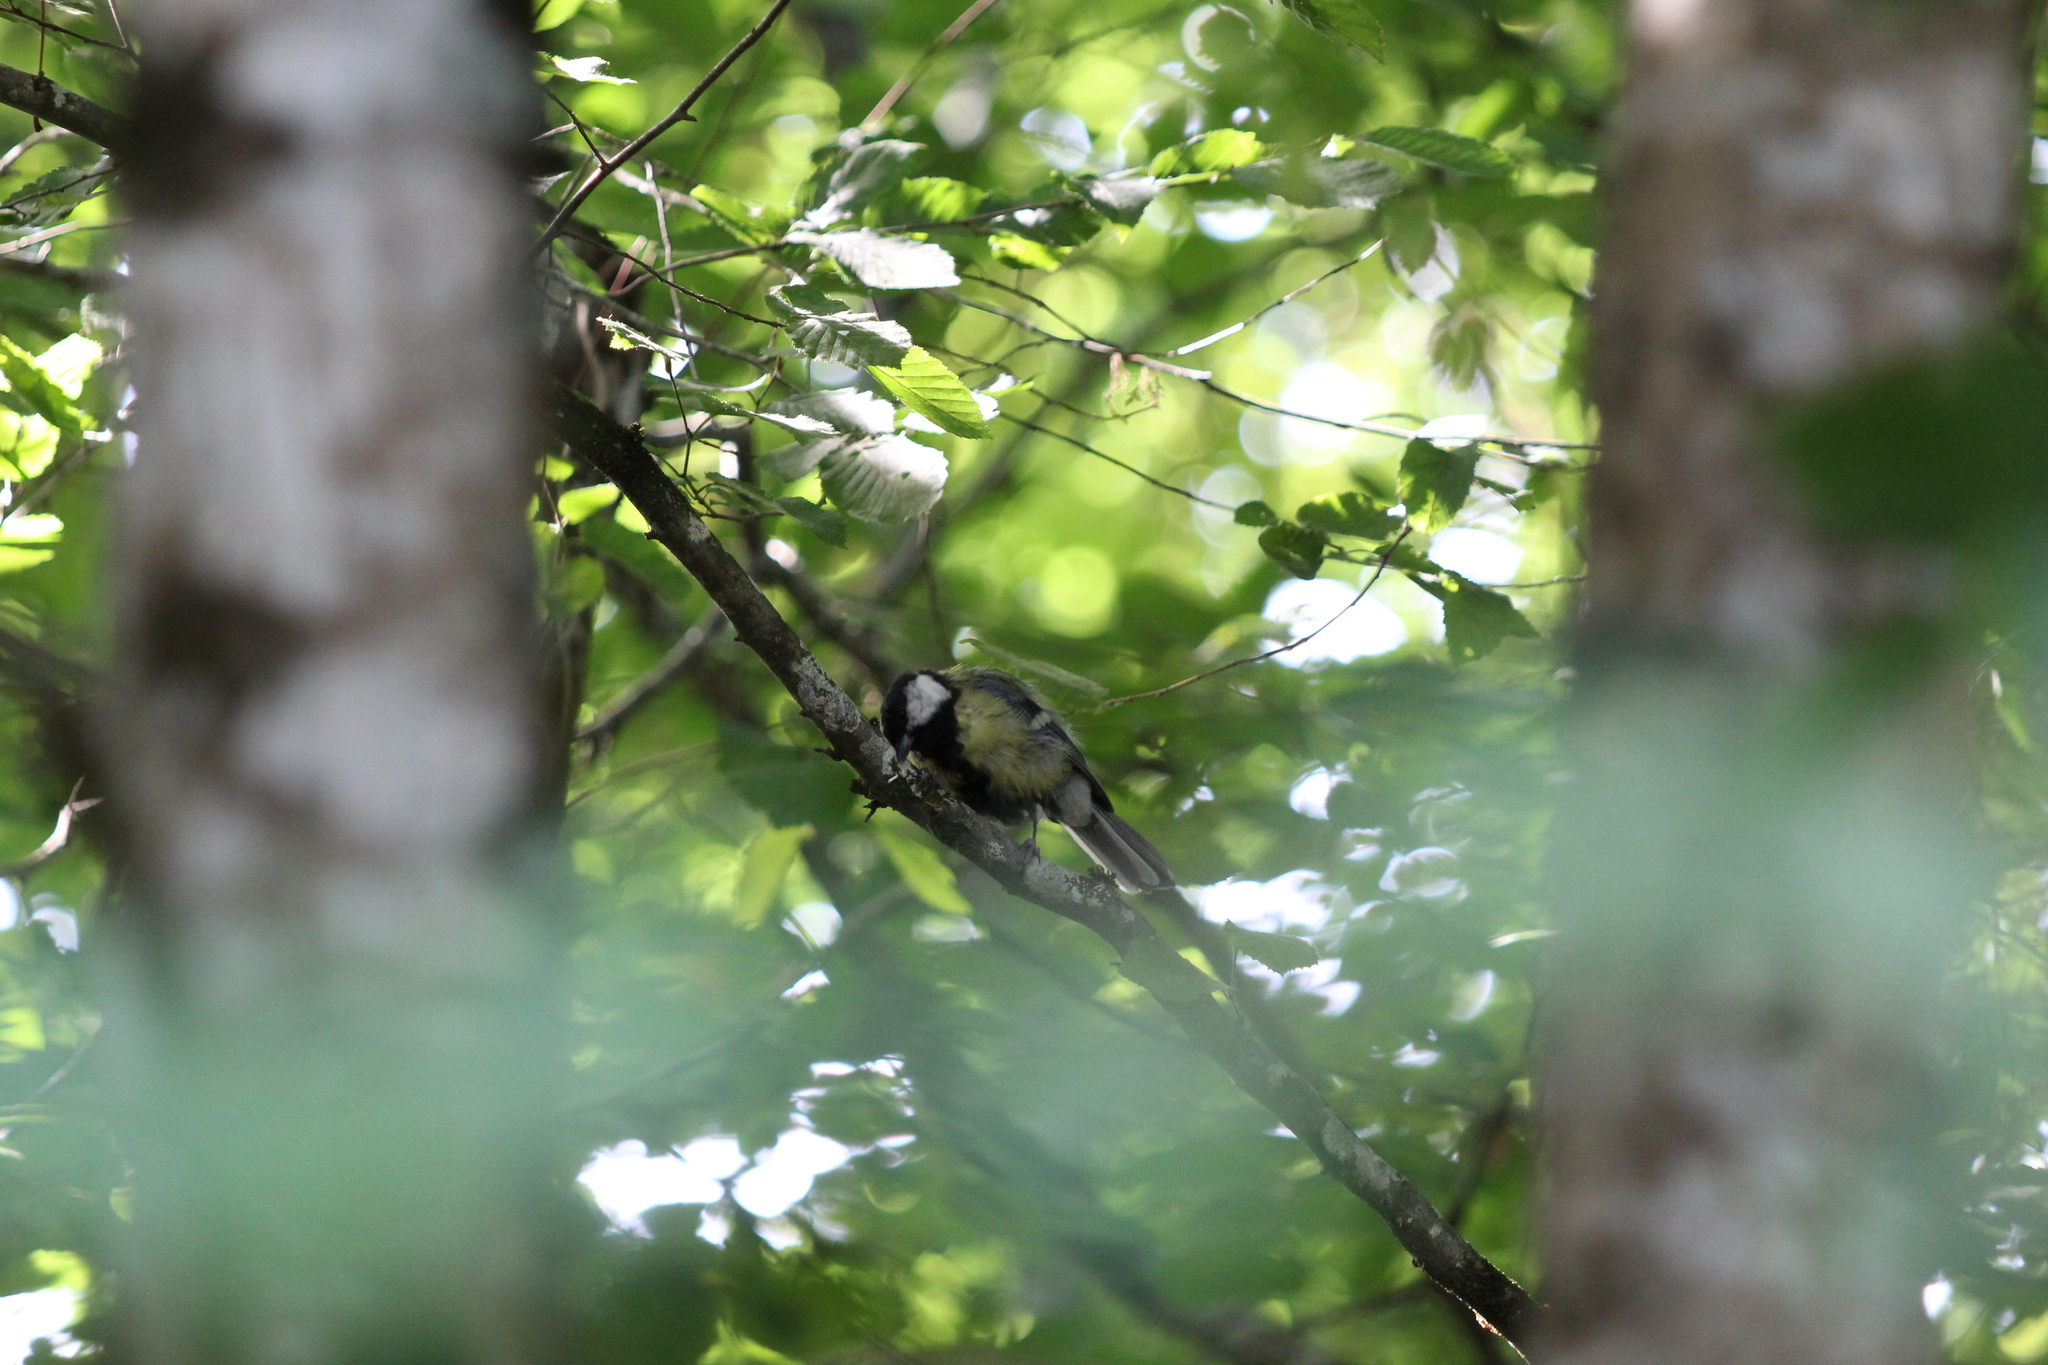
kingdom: Animalia
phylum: Chordata
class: Aves
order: Passeriformes
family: Paridae
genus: Parus
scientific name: Parus major
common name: Great tit
